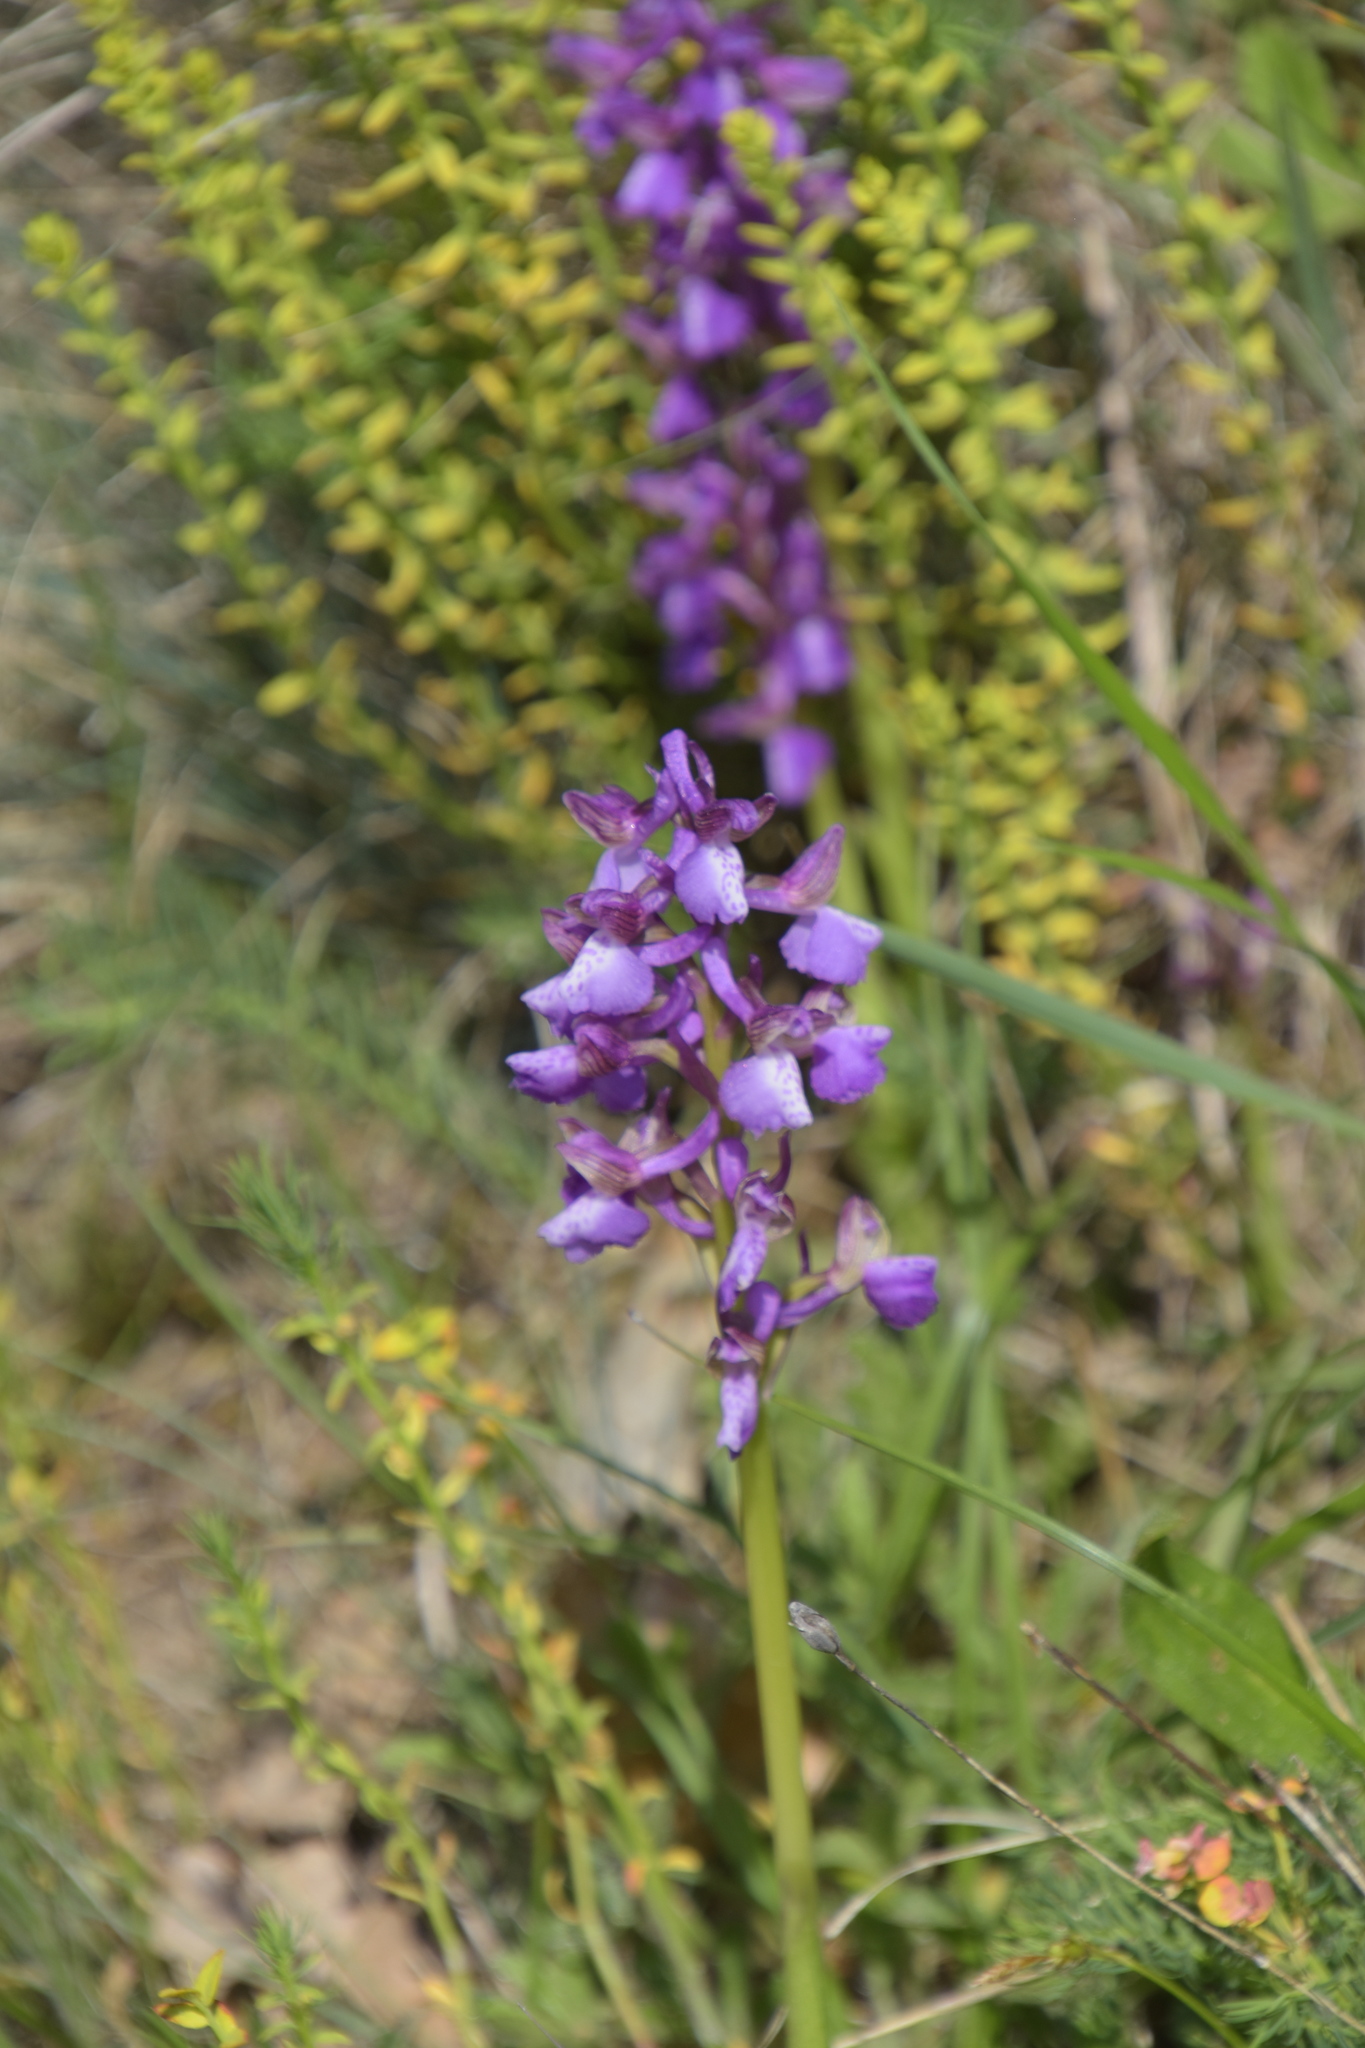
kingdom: Plantae
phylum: Tracheophyta
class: Liliopsida
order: Asparagales
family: Orchidaceae
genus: Anacamptis
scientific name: Anacamptis morio
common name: Green-winged orchid
